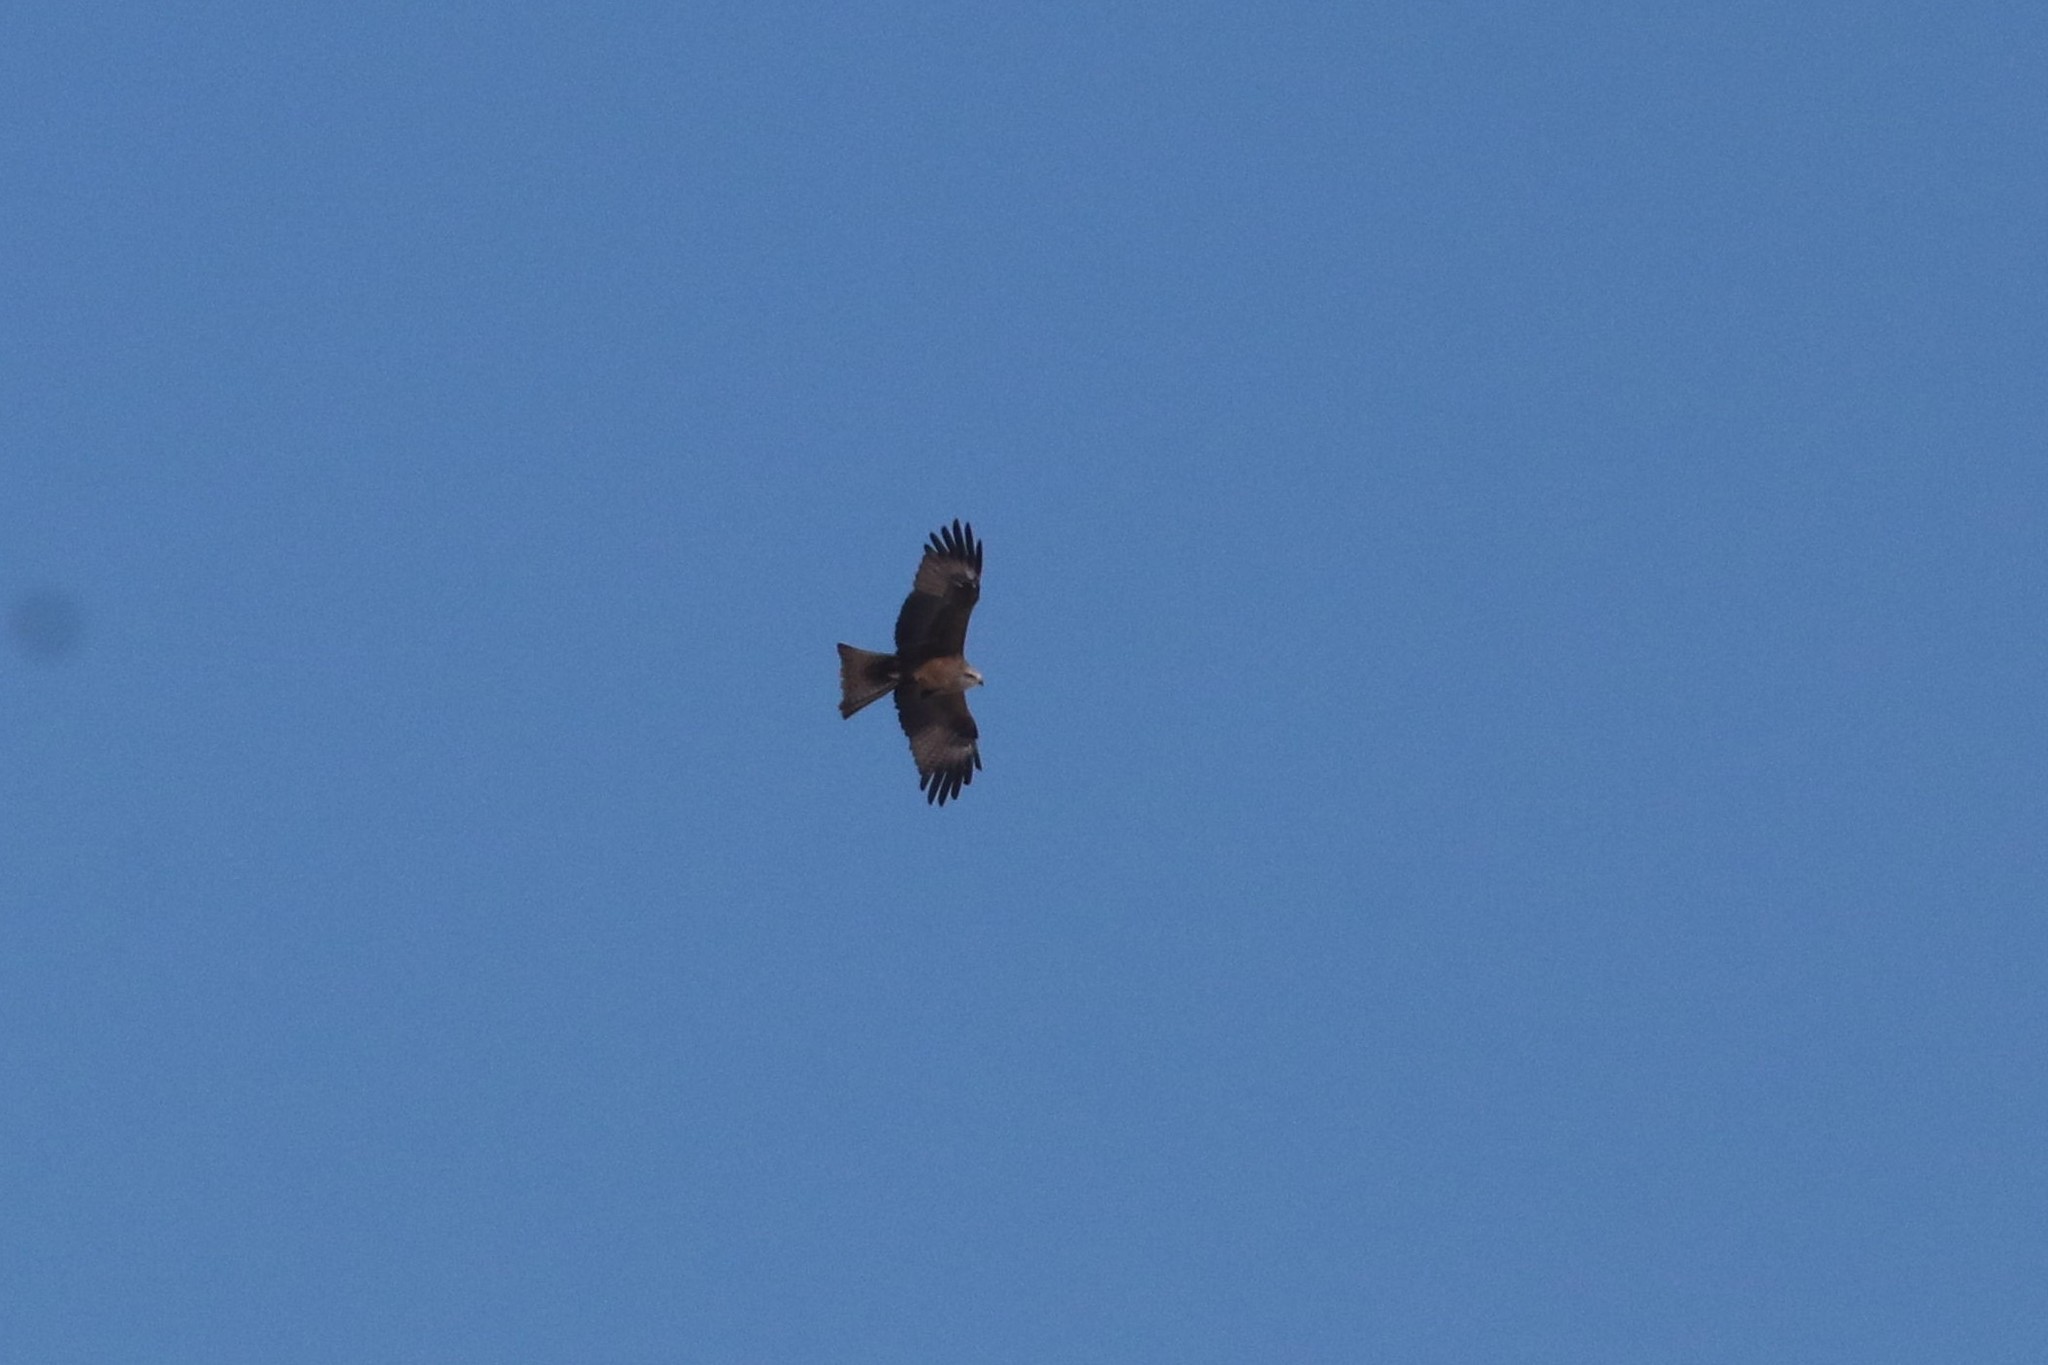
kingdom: Animalia
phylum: Chordata
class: Aves
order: Accipitriformes
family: Accipitridae
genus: Milvus
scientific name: Milvus migrans
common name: Black kite
